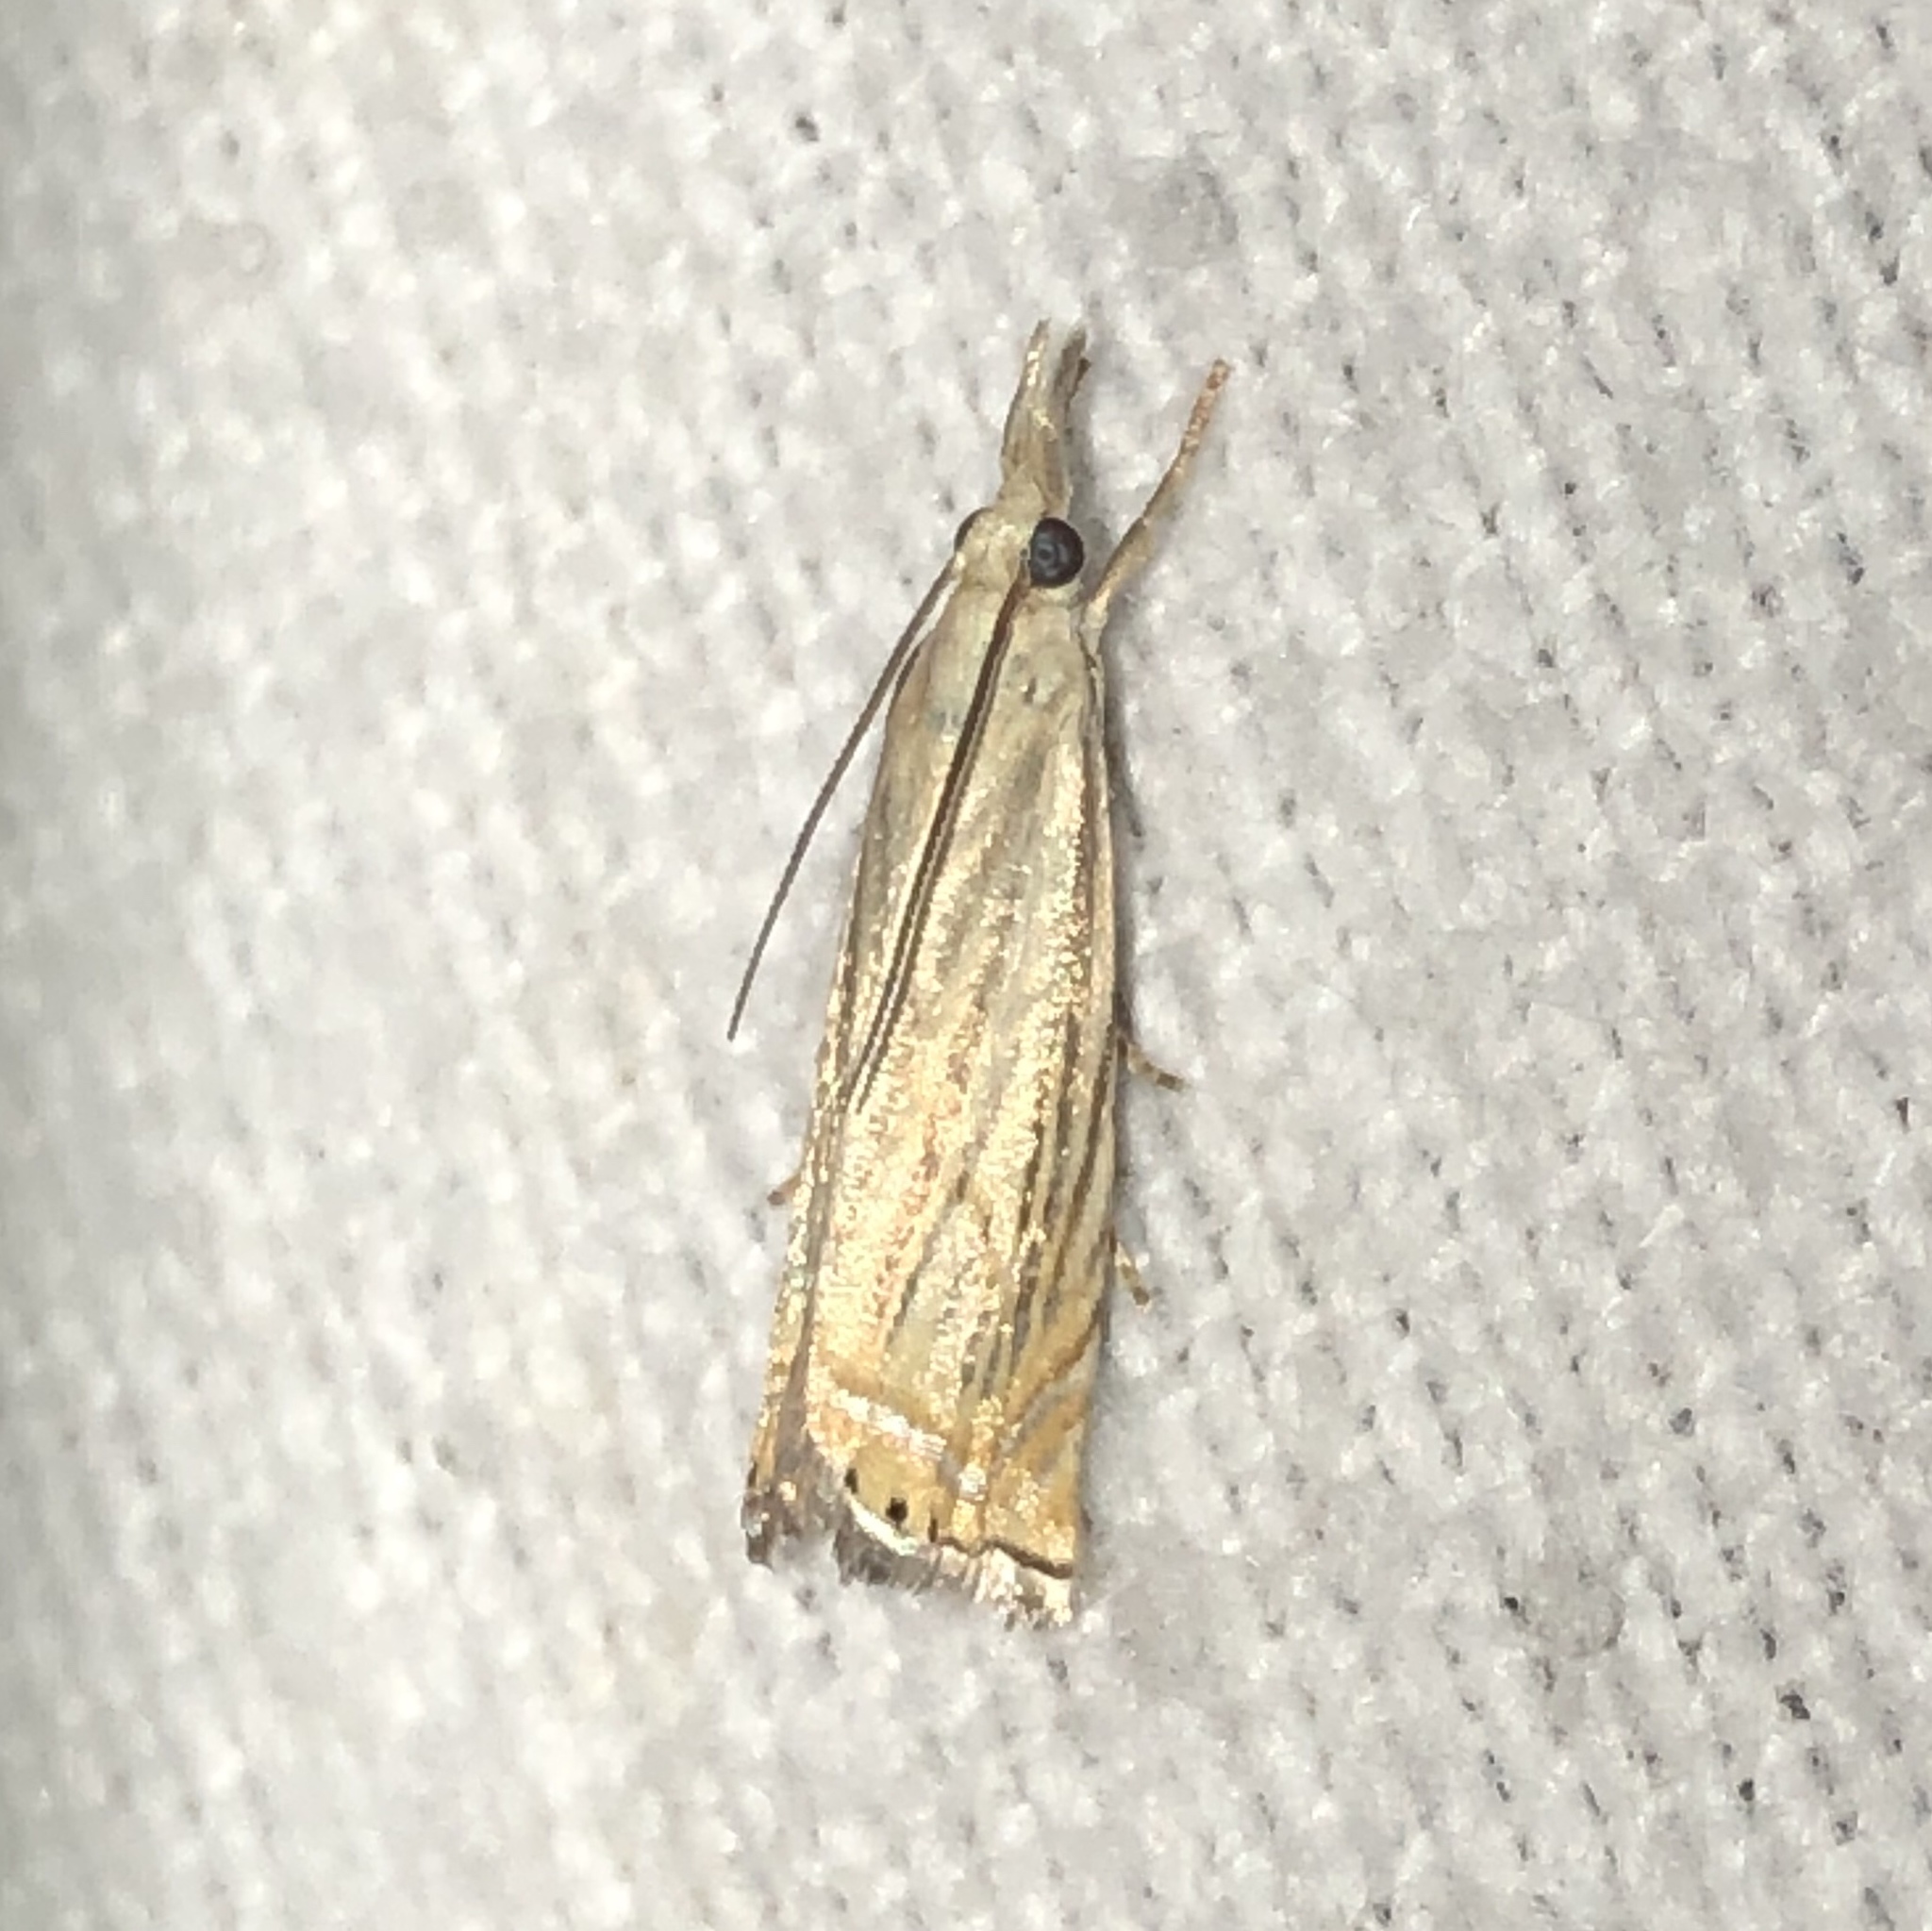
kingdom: Animalia
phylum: Arthropoda
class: Insecta
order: Lepidoptera
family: Crambidae
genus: Chrysoteuchia
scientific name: Chrysoteuchia topiarius
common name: Topiary grass-veneer
